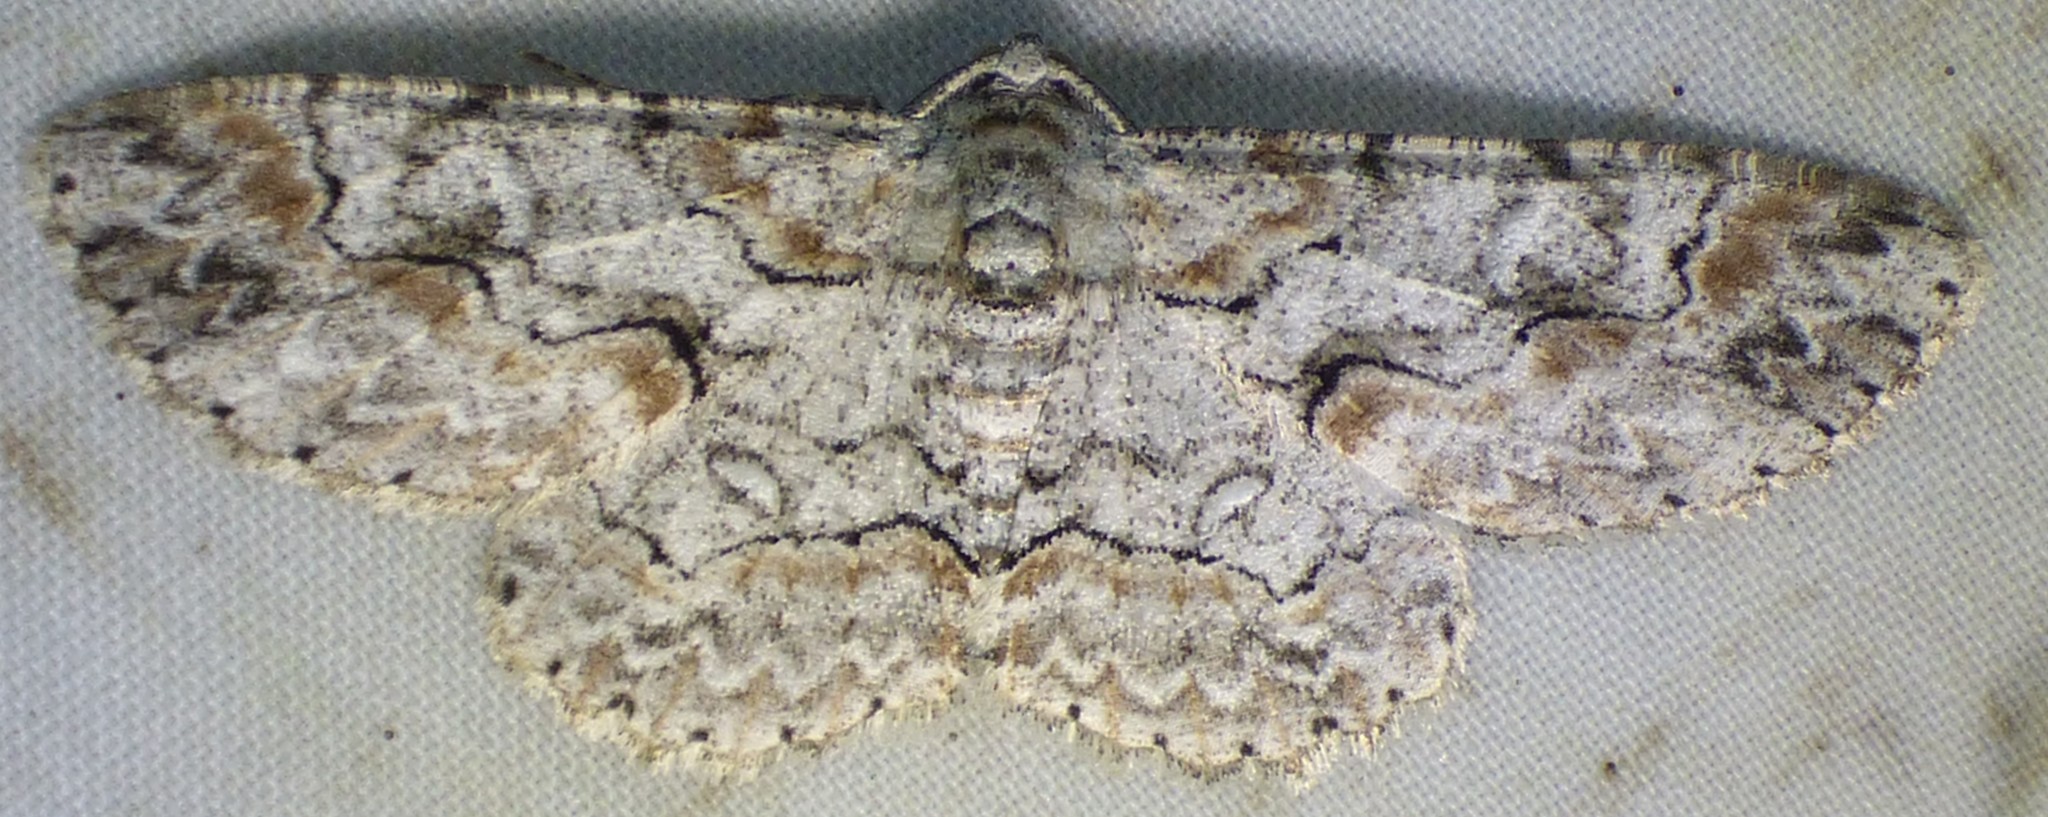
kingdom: Animalia
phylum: Arthropoda
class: Insecta
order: Lepidoptera
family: Geometridae
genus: Iridopsis
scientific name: Iridopsis defectaria
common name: Brown-shaded gray
